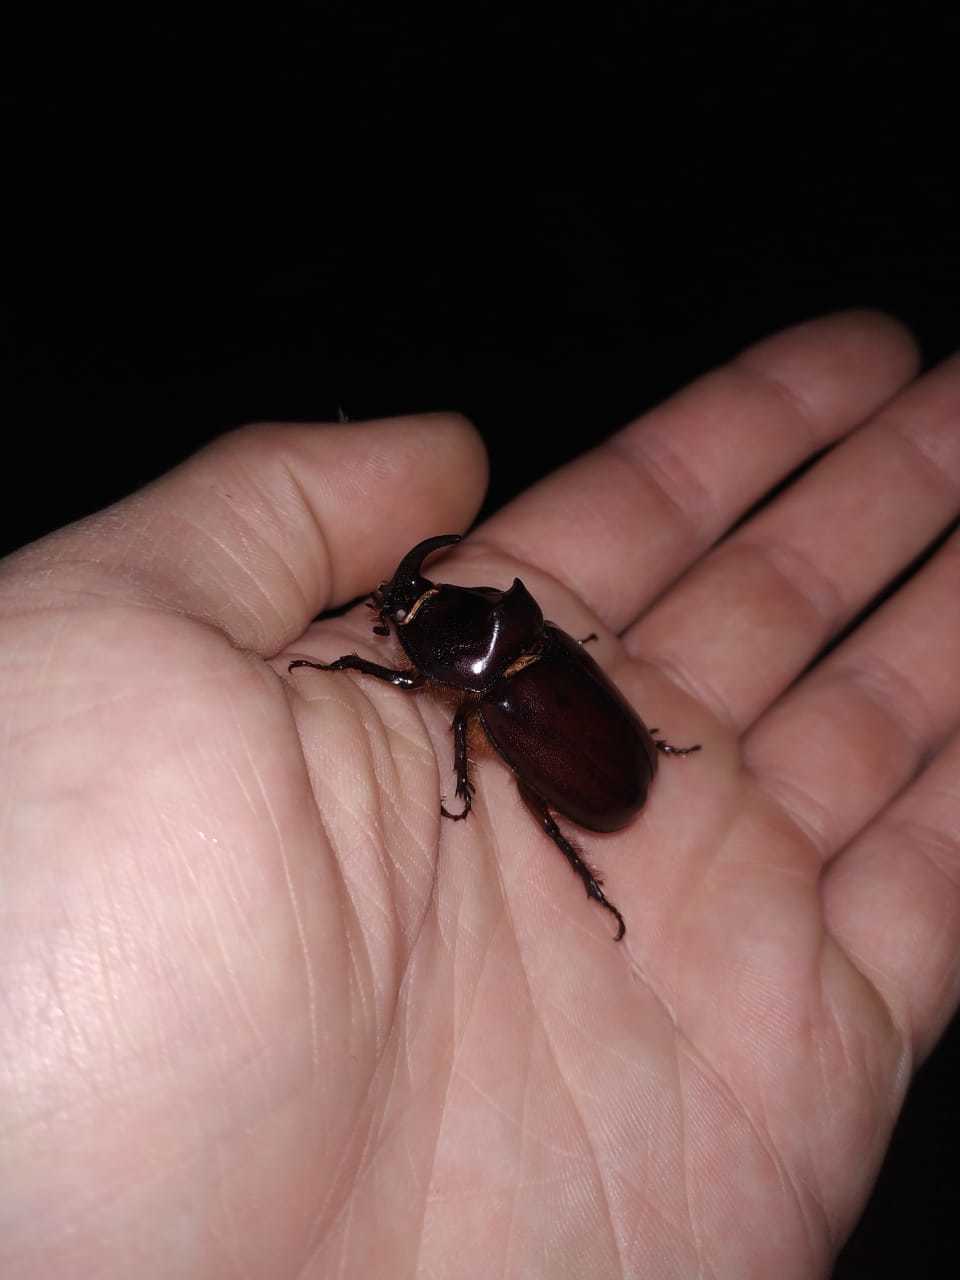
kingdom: Animalia
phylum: Arthropoda
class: Insecta
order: Coleoptera
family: Scarabaeidae
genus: Oryctes
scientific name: Oryctes nasicornis
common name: European rhinoceros beetle
